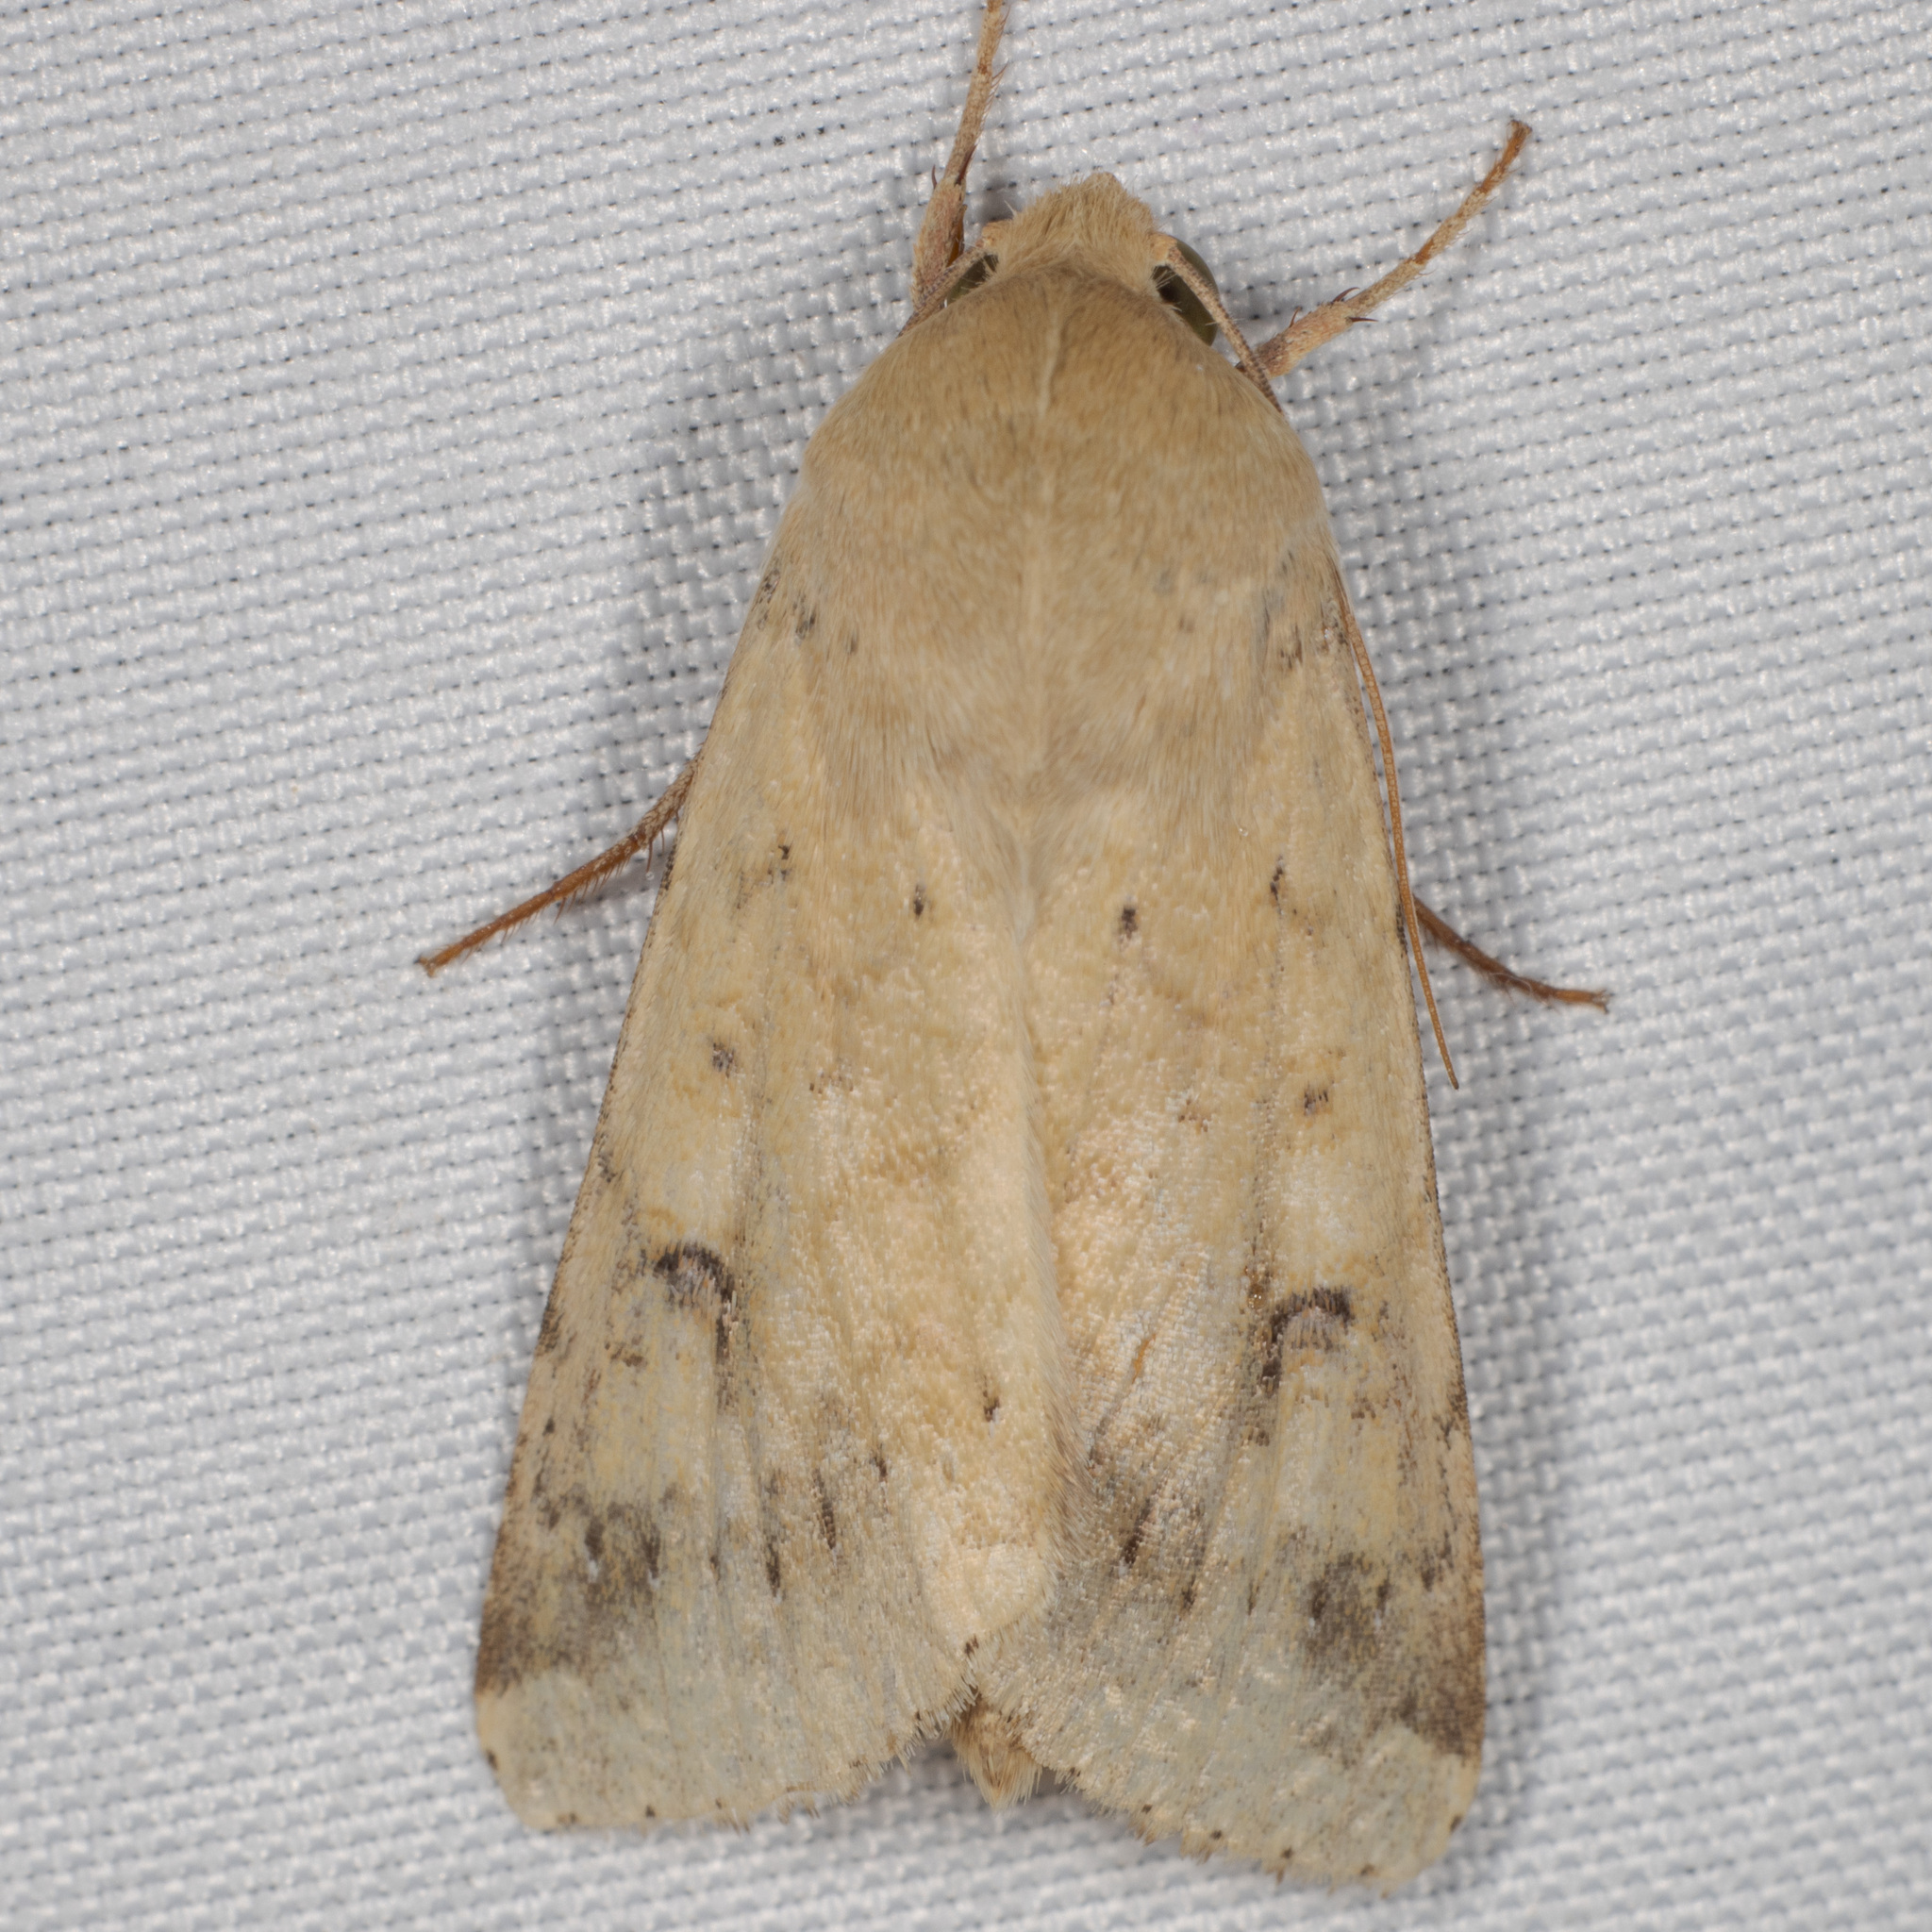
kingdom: Animalia
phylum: Arthropoda
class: Insecta
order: Lepidoptera
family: Noctuidae
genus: Helicoverpa
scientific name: Helicoverpa zea
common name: Bollworm
